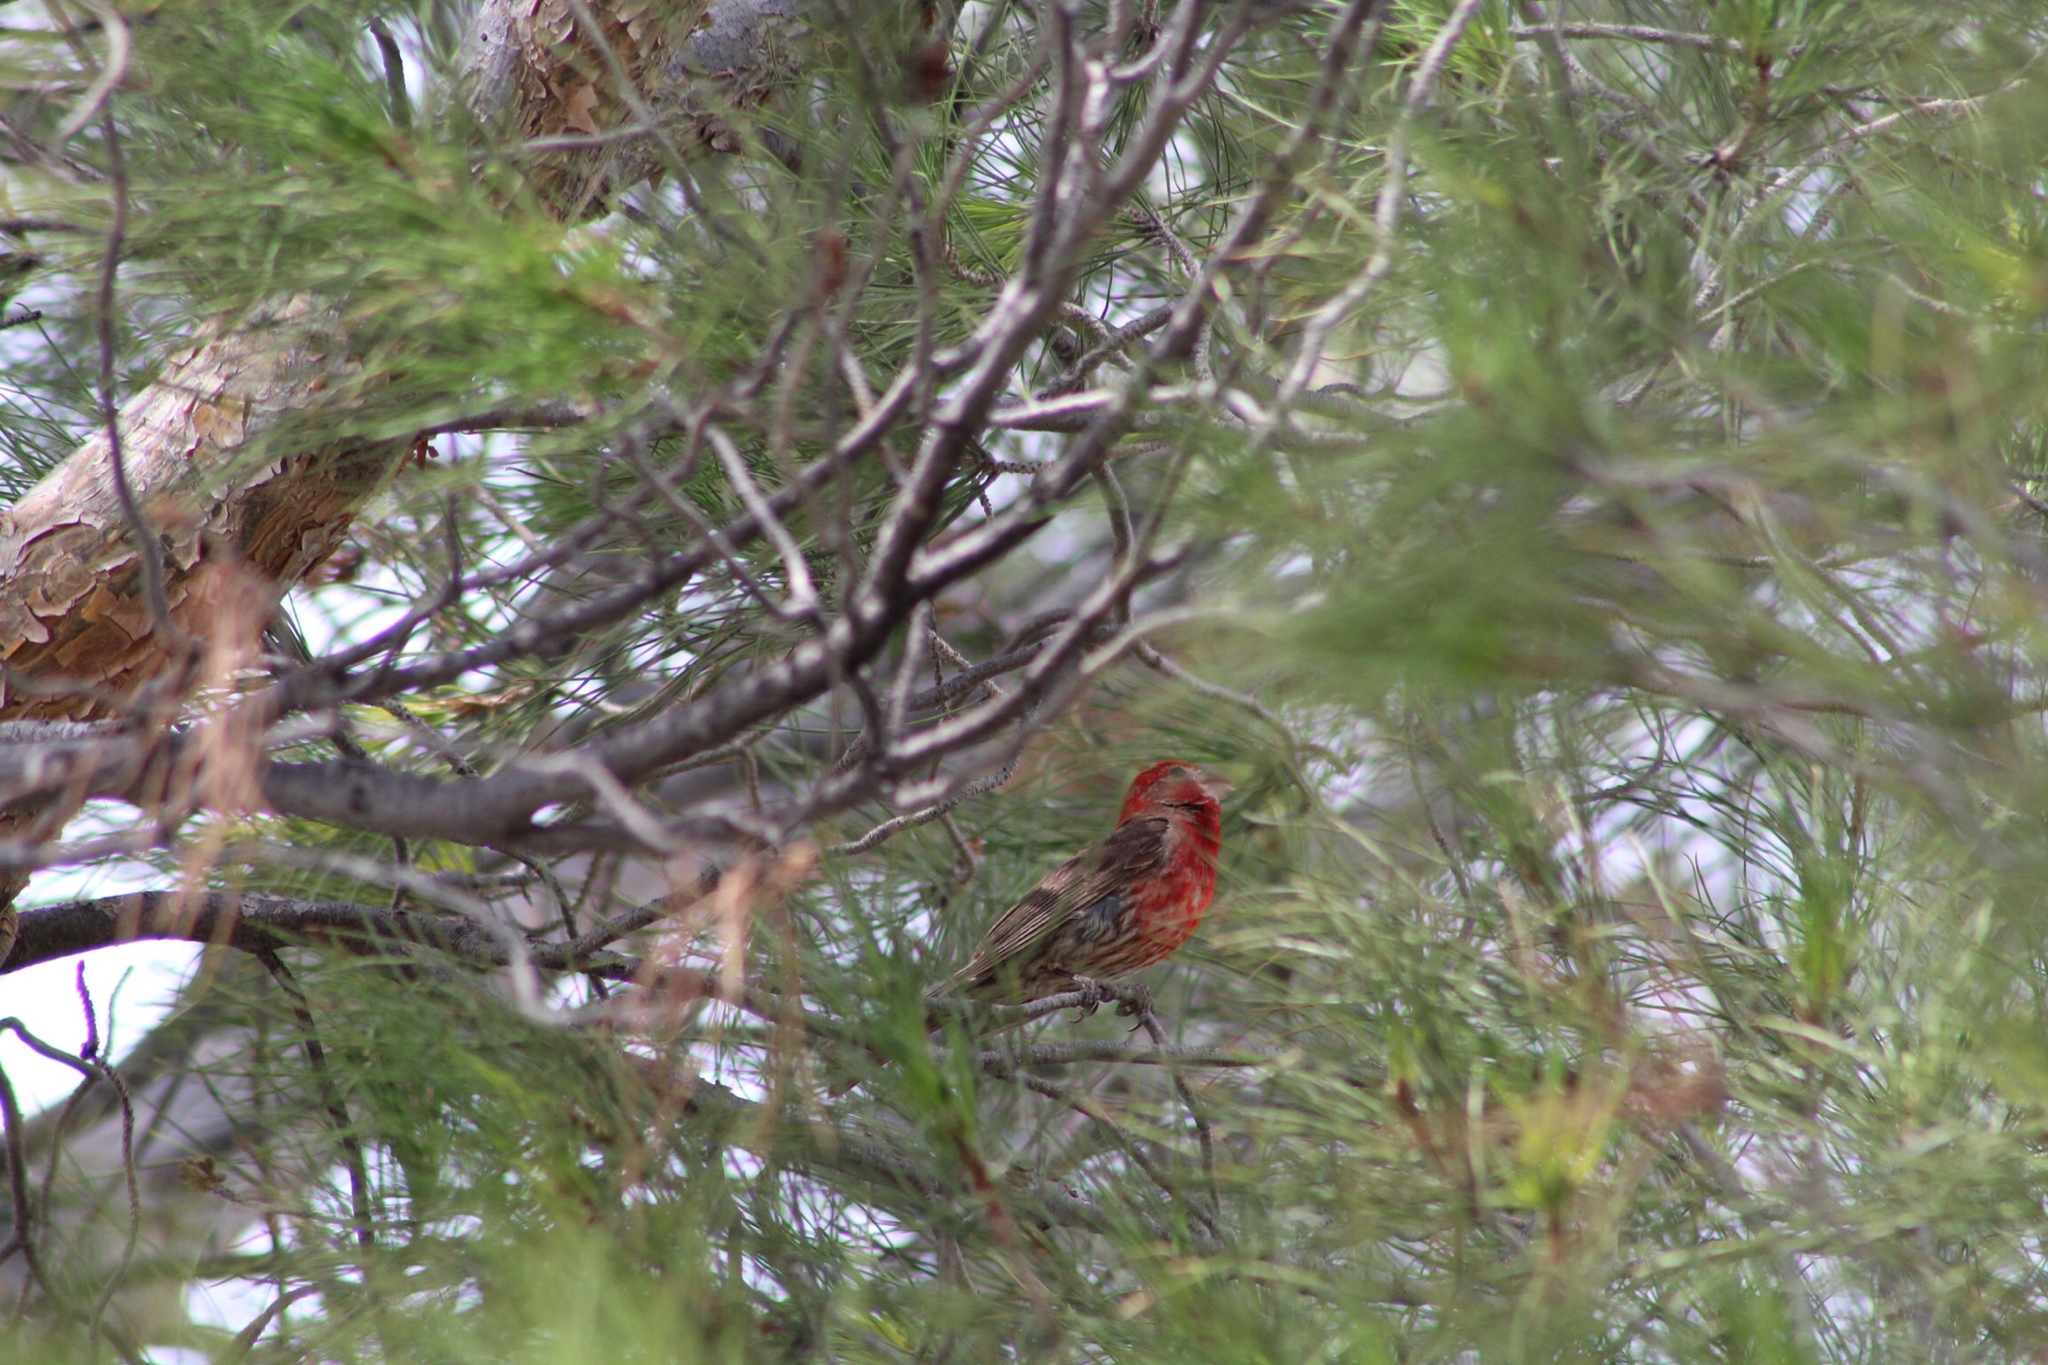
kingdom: Animalia
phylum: Chordata
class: Aves
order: Passeriformes
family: Fringillidae
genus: Haemorhous
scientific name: Haemorhous mexicanus
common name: House finch
